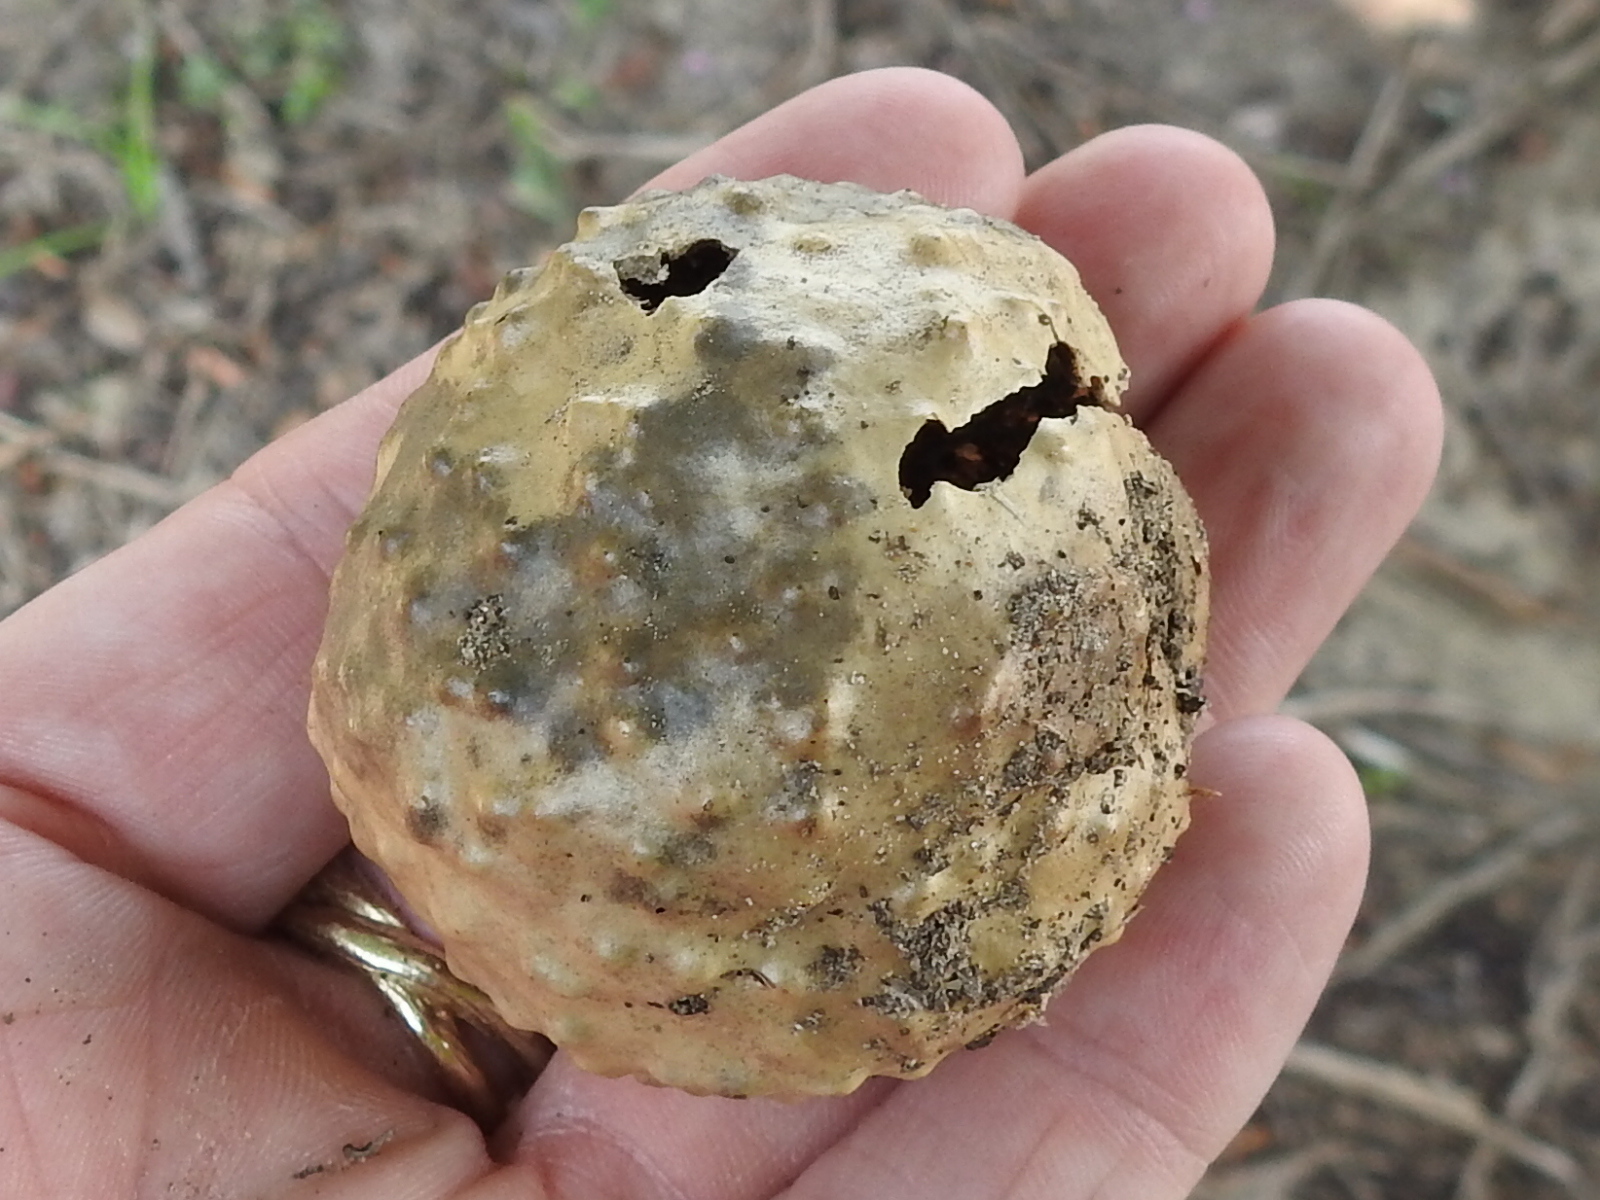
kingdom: Animalia
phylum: Arthropoda
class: Insecta
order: Hymenoptera
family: Cynipidae
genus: Amphibolips
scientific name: Amphibolips
